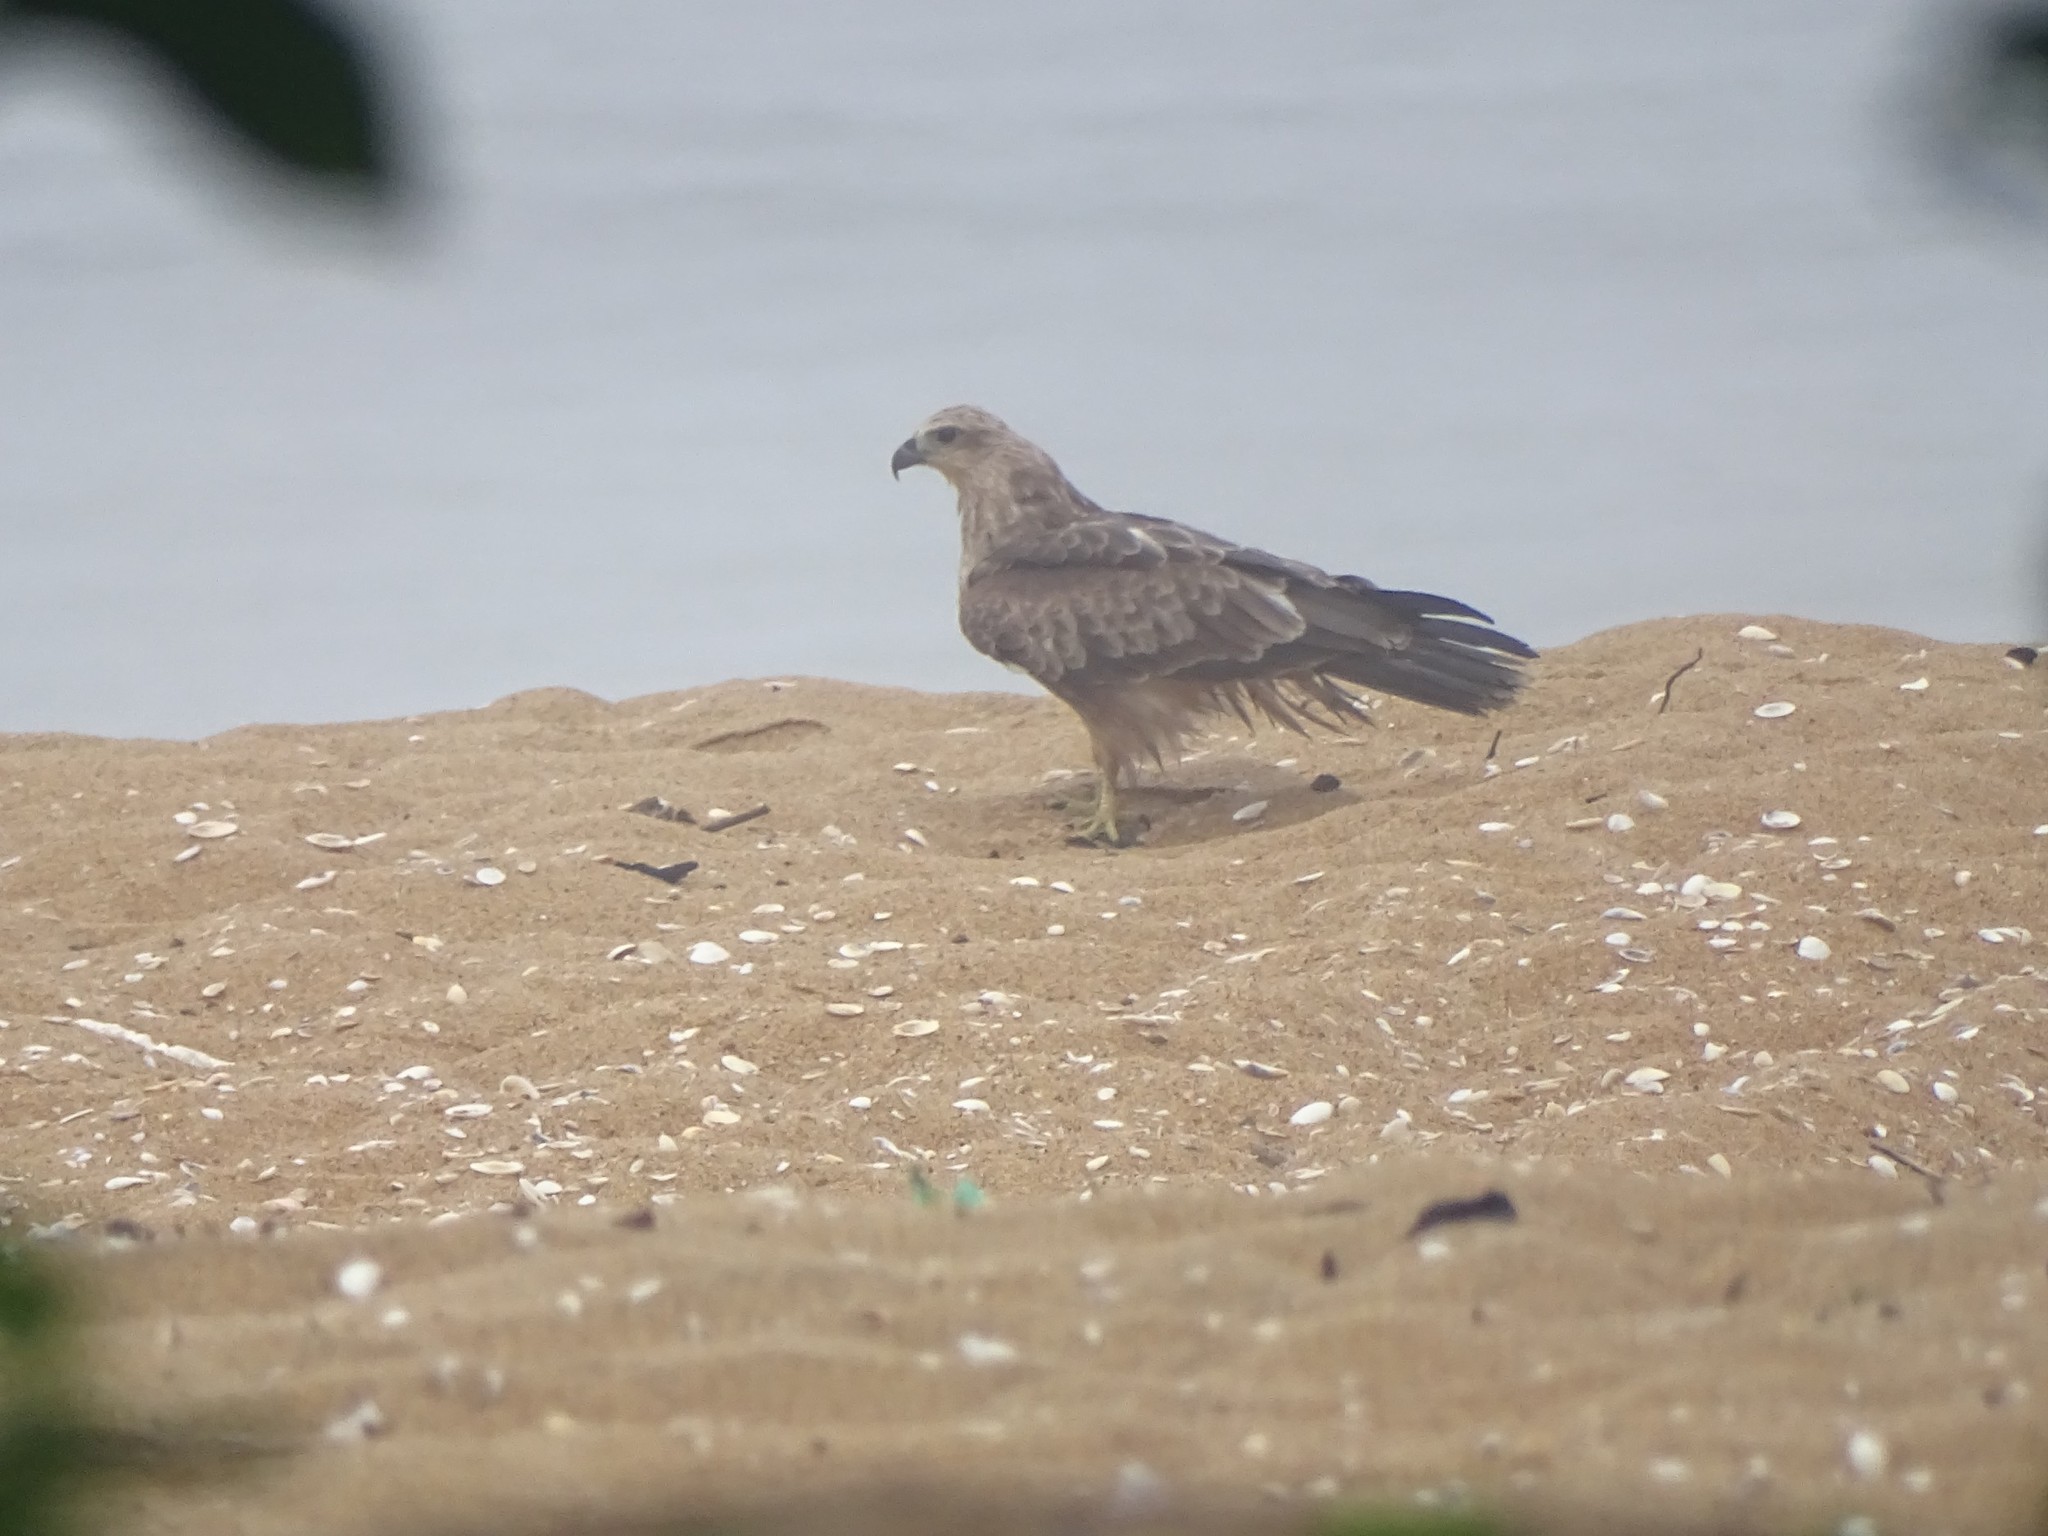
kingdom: Animalia
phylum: Chordata
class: Aves
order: Accipitriformes
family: Accipitridae
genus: Milvus
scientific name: Milvus migrans
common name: Black kite
